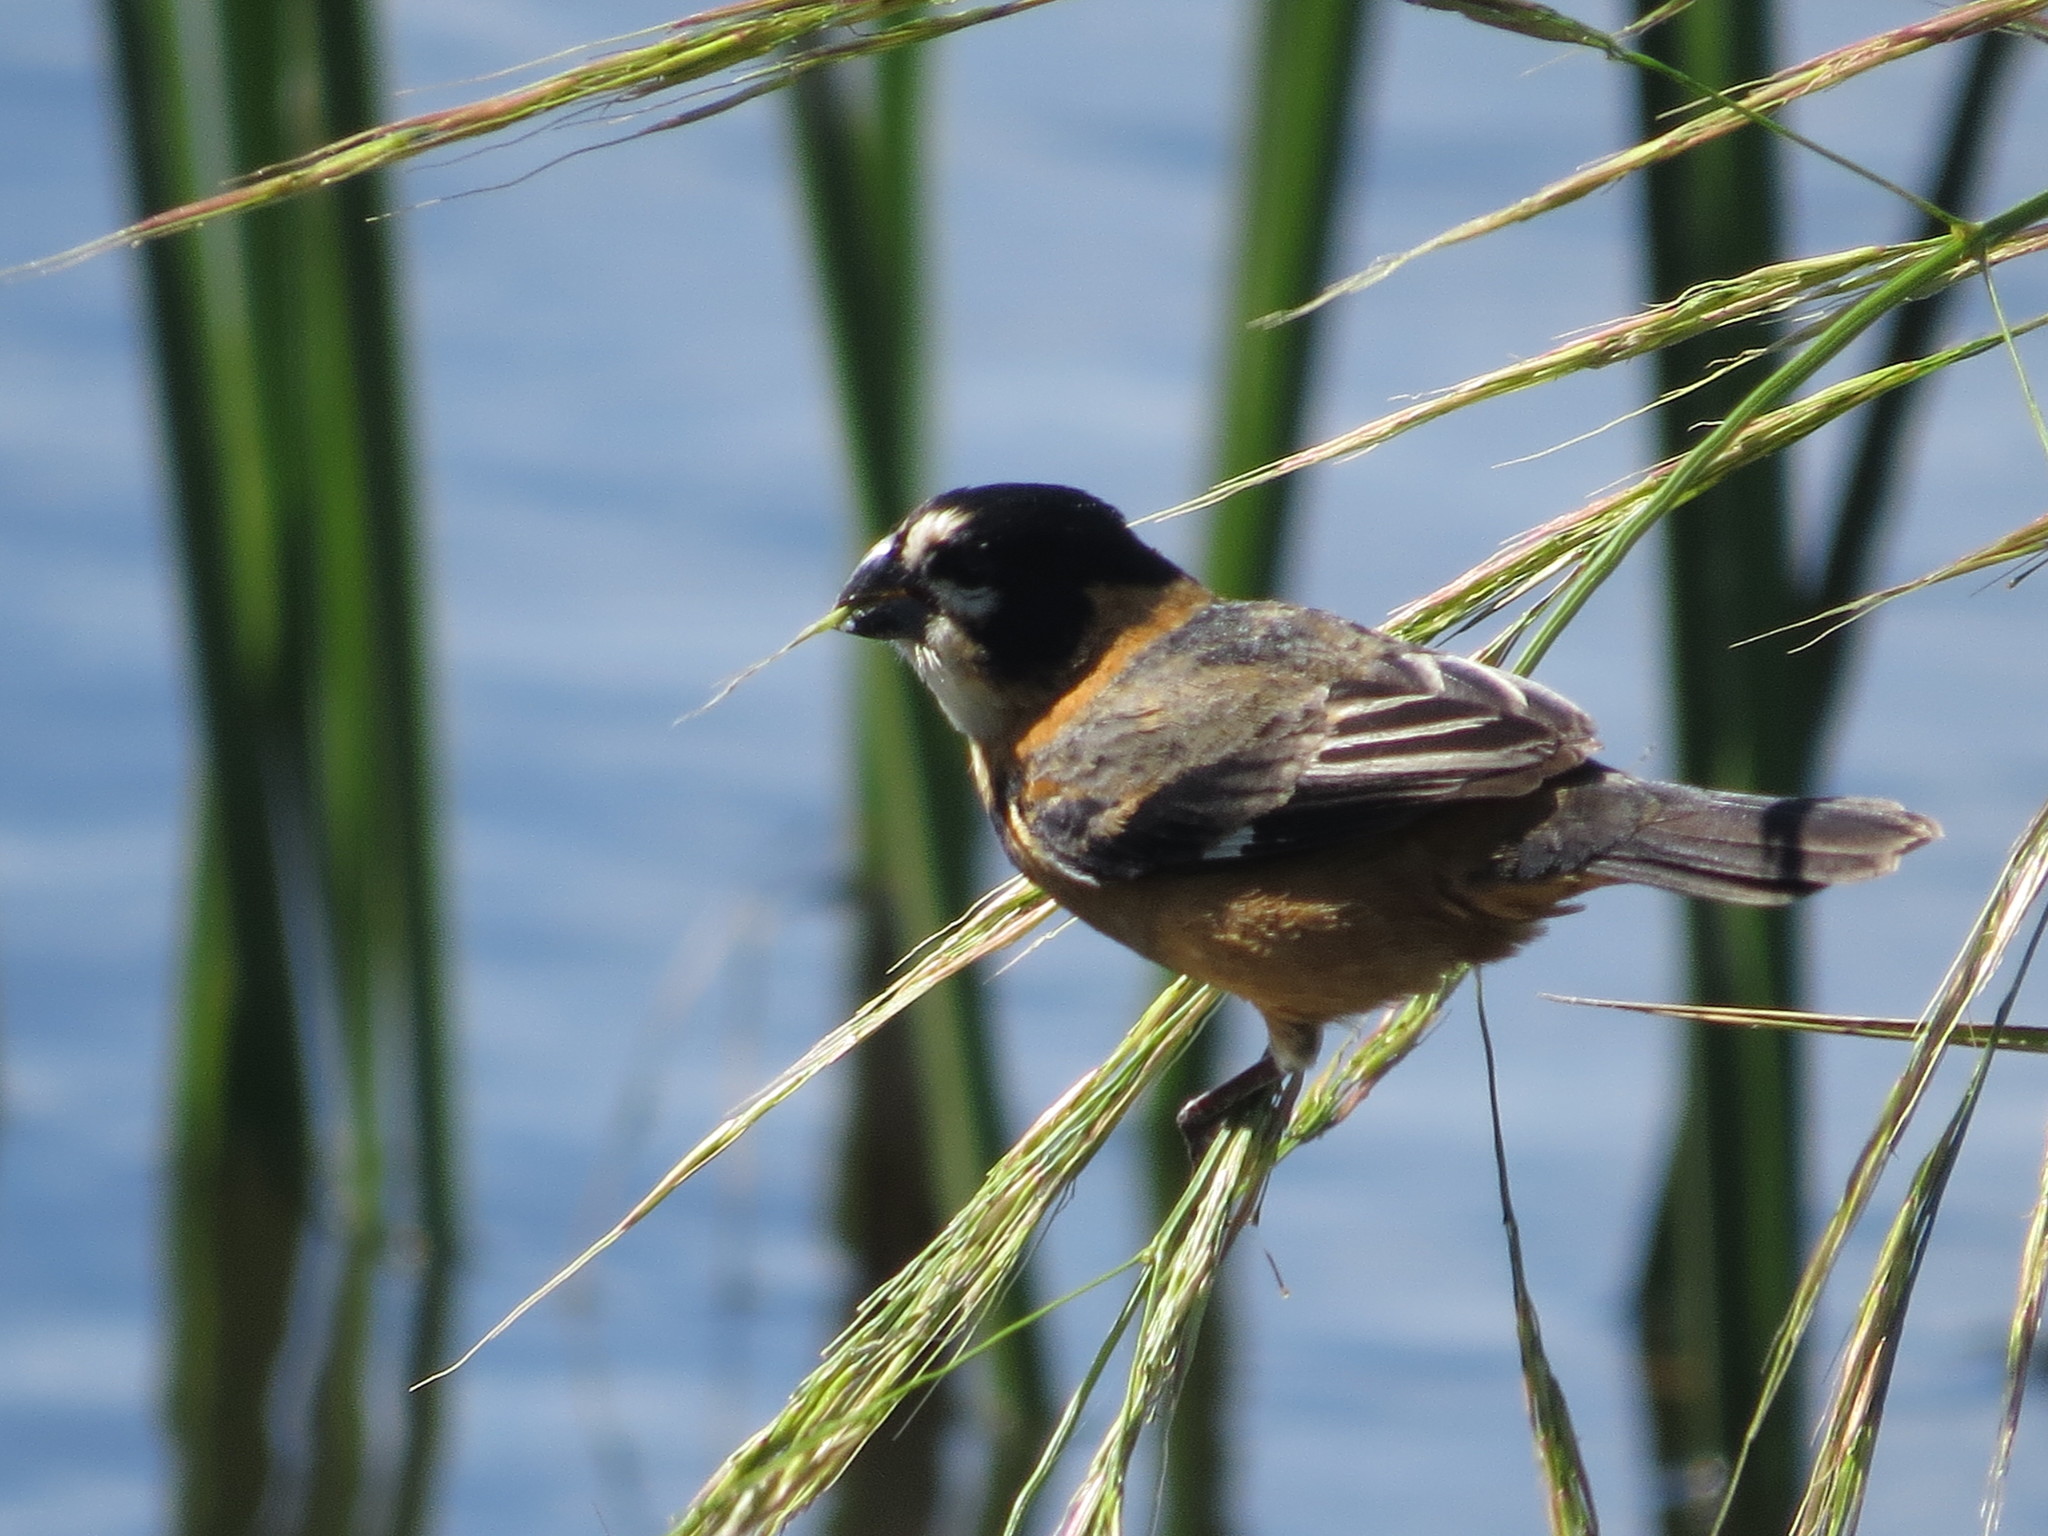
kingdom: Animalia
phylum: Chordata
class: Aves
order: Passeriformes
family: Thraupidae
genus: Sporophila
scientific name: Sporophila collaris
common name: Rusty-collared seedeater
